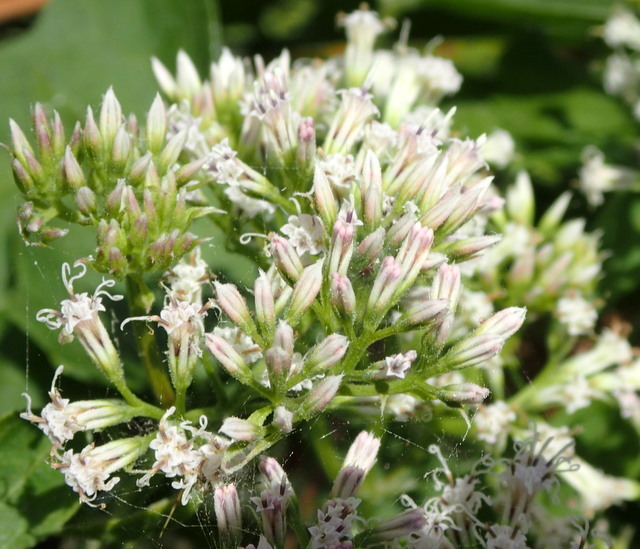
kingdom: Plantae
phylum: Tracheophyta
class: Magnoliopsida
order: Asterales
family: Asteraceae
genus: Mikania
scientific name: Mikania scandens
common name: Climbing hempvine
